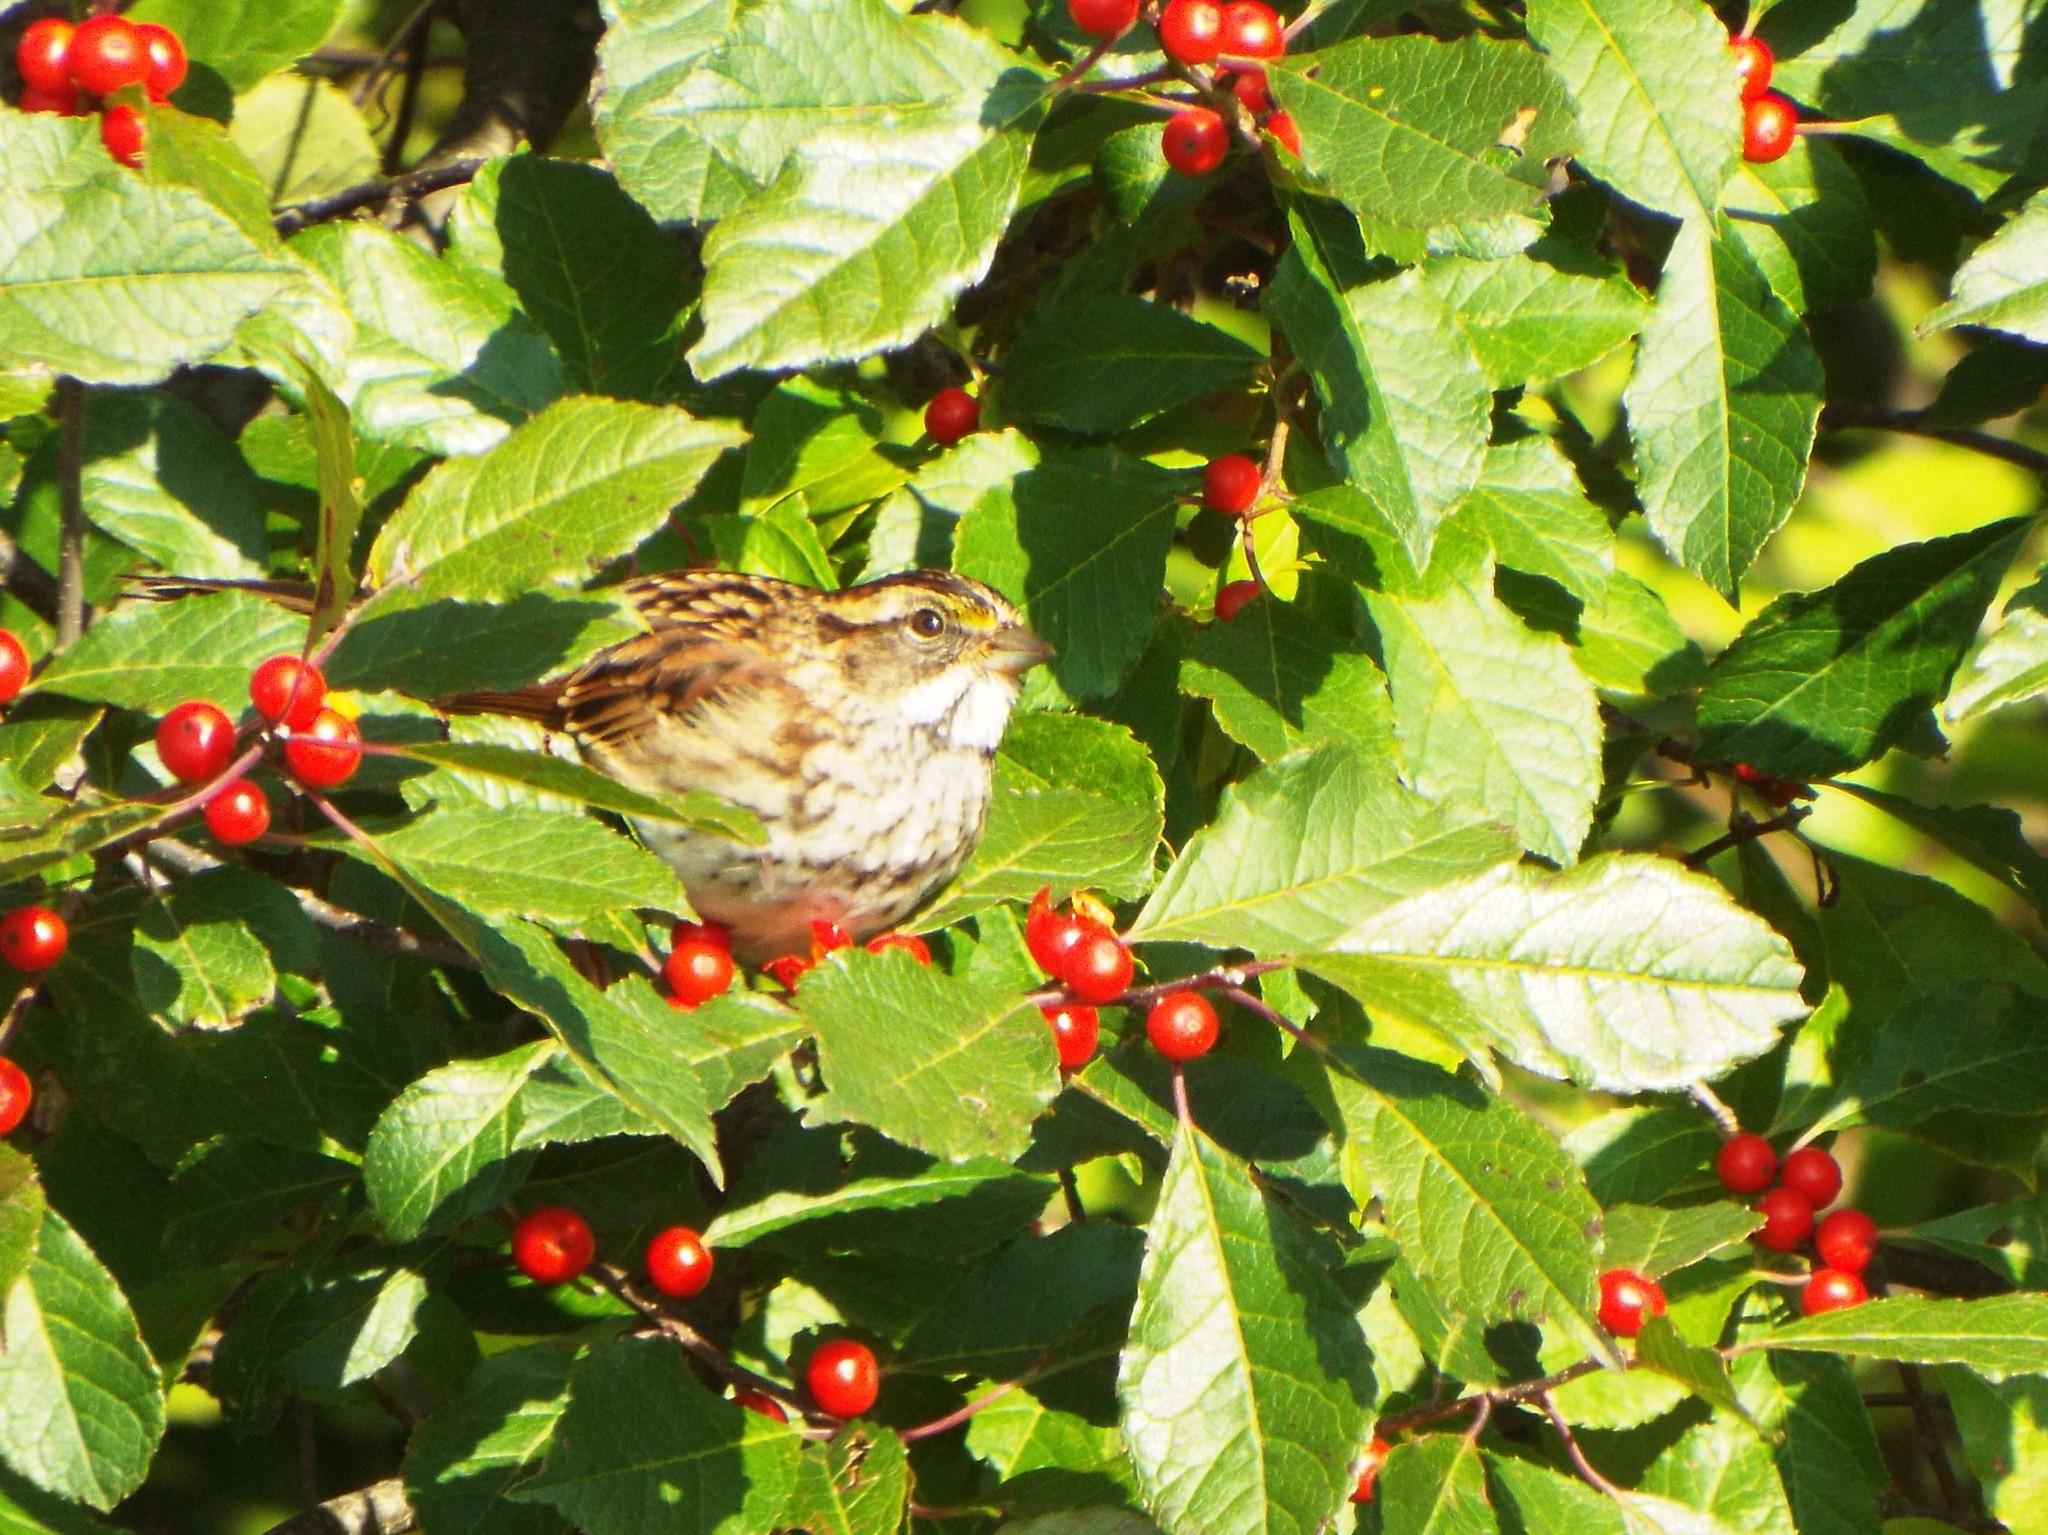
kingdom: Animalia
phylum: Chordata
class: Aves
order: Passeriformes
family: Passerellidae
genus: Zonotrichia
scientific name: Zonotrichia albicollis
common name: White-throated sparrow
